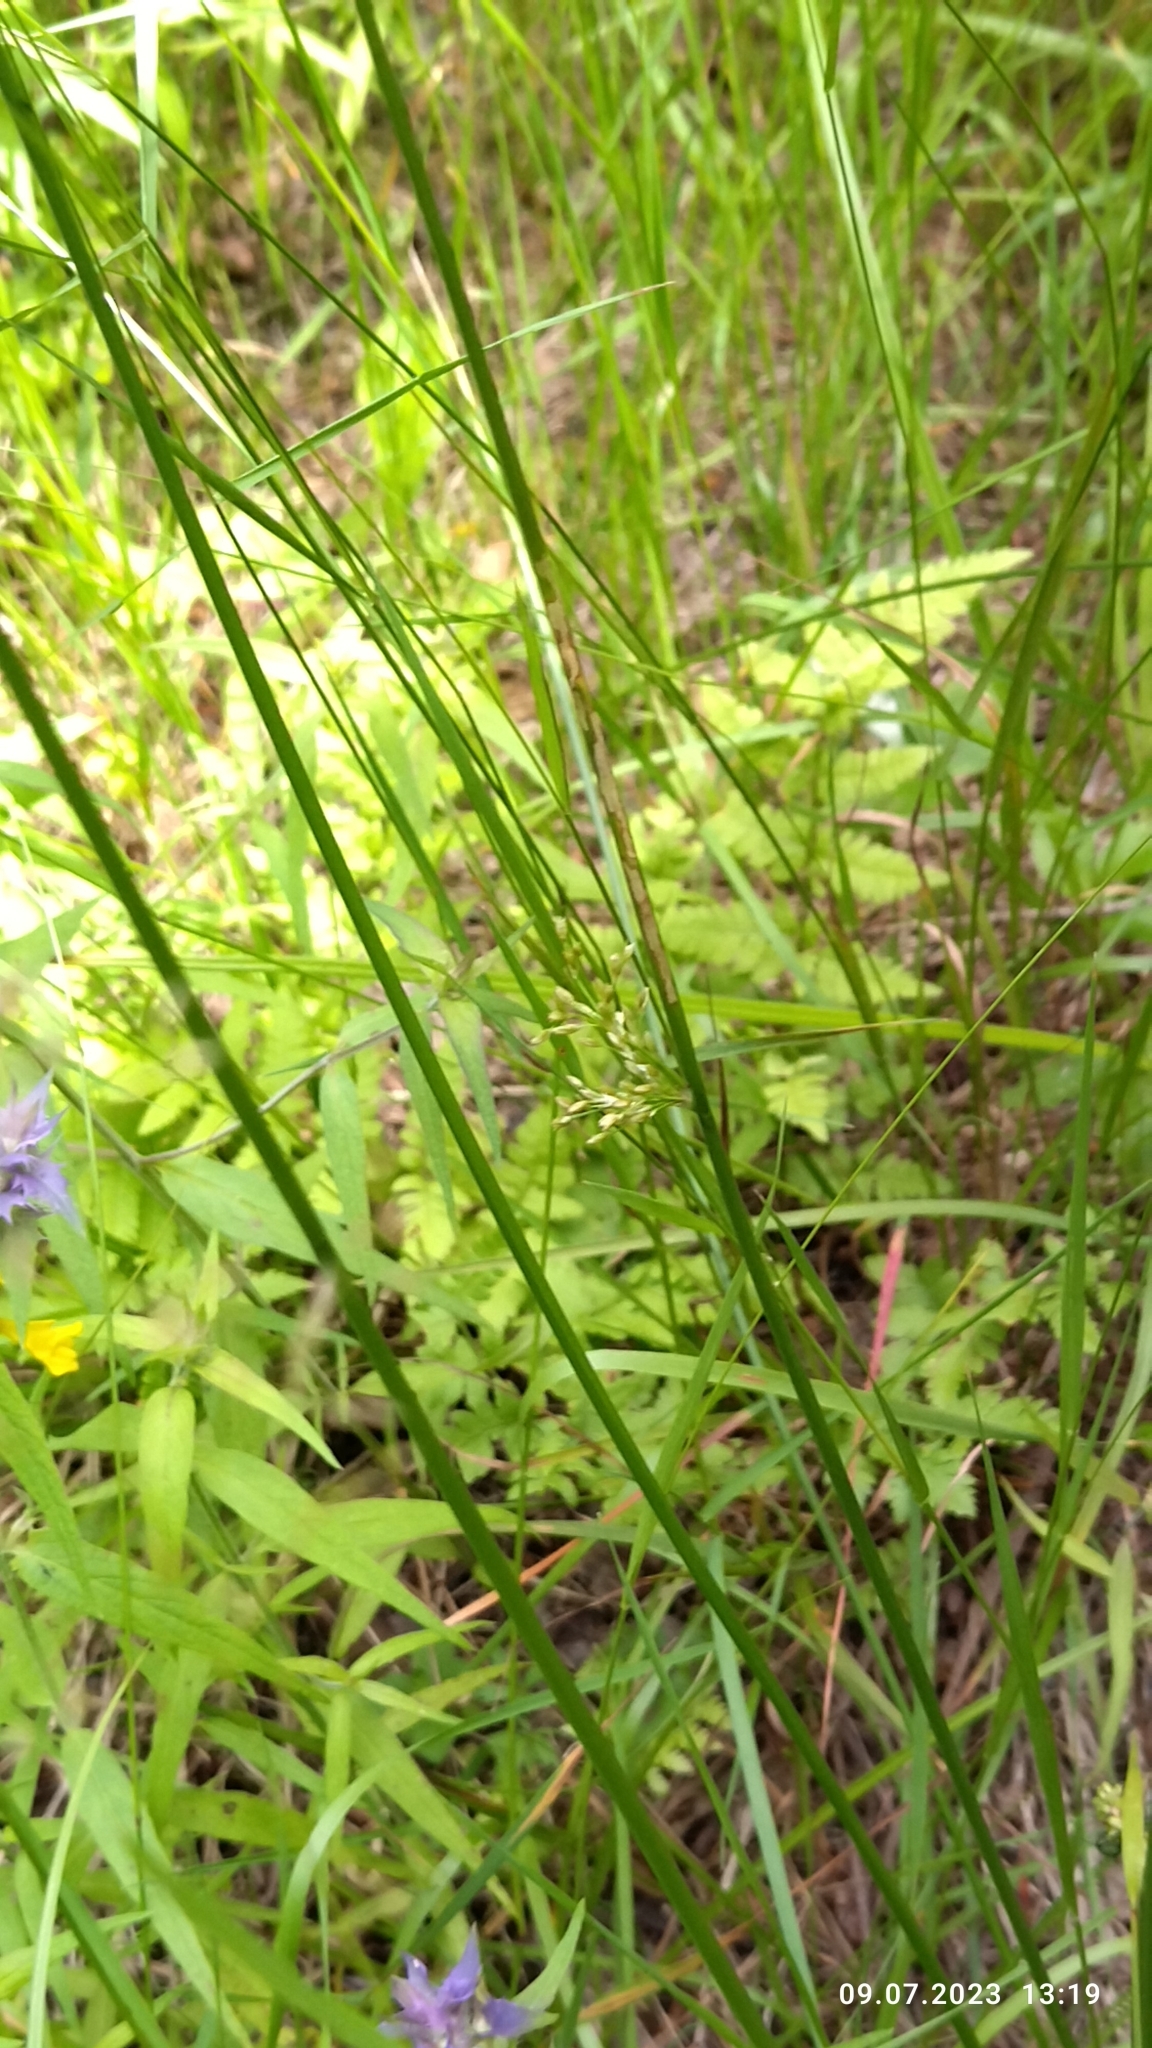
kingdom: Plantae
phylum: Tracheophyta
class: Liliopsida
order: Poales
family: Juncaceae
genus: Juncus
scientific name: Juncus effusus
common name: Soft rush
